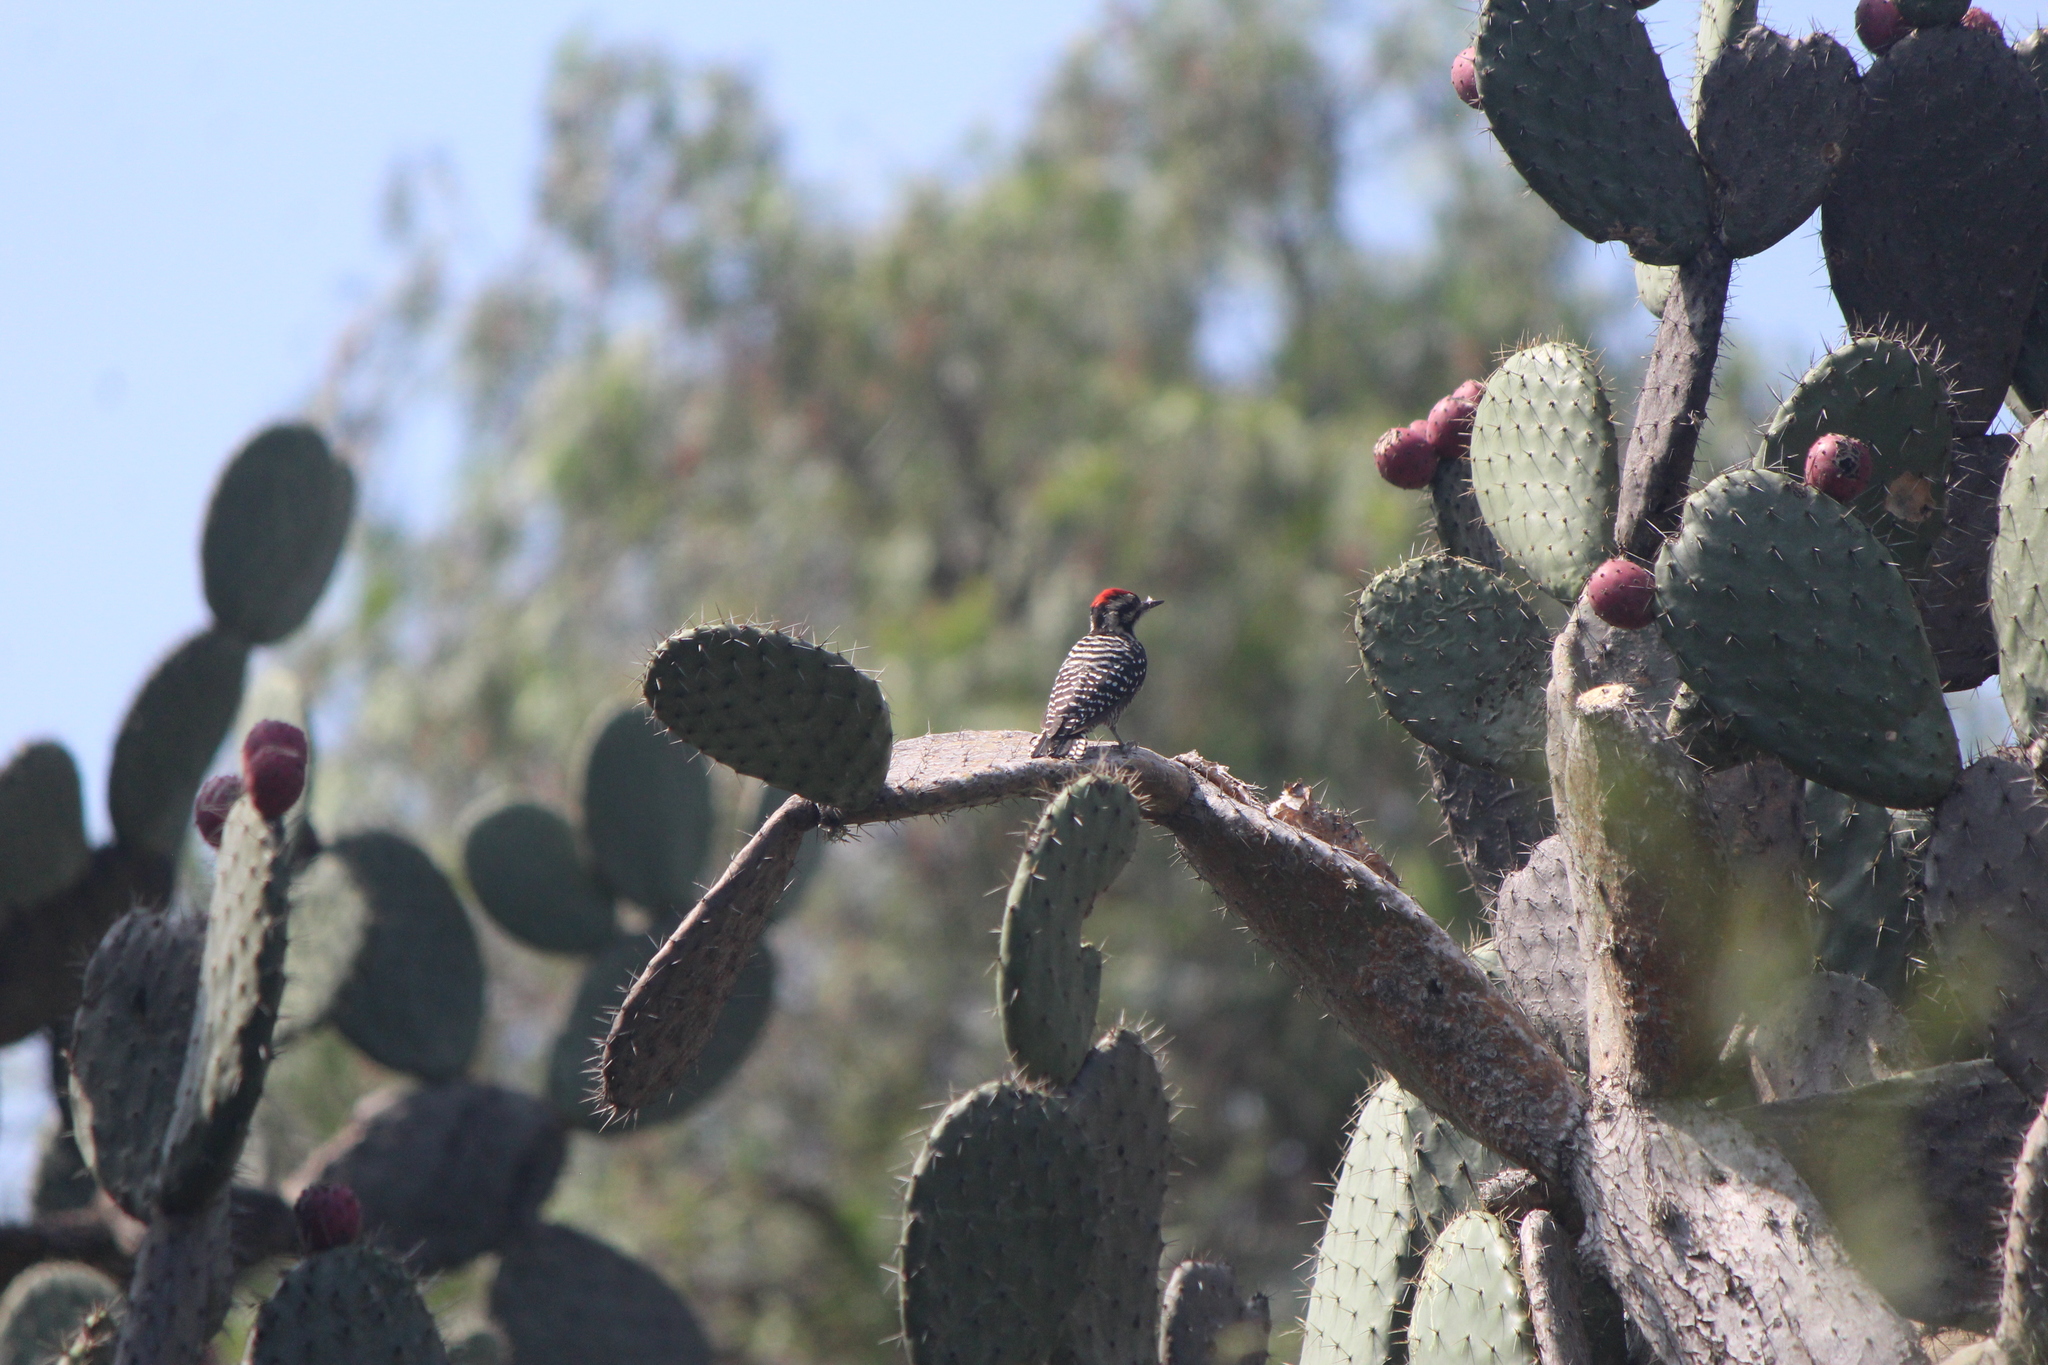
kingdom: Animalia
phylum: Chordata
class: Aves
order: Piciformes
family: Picidae
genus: Dryobates
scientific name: Dryobates scalaris
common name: Ladder-backed woodpecker
